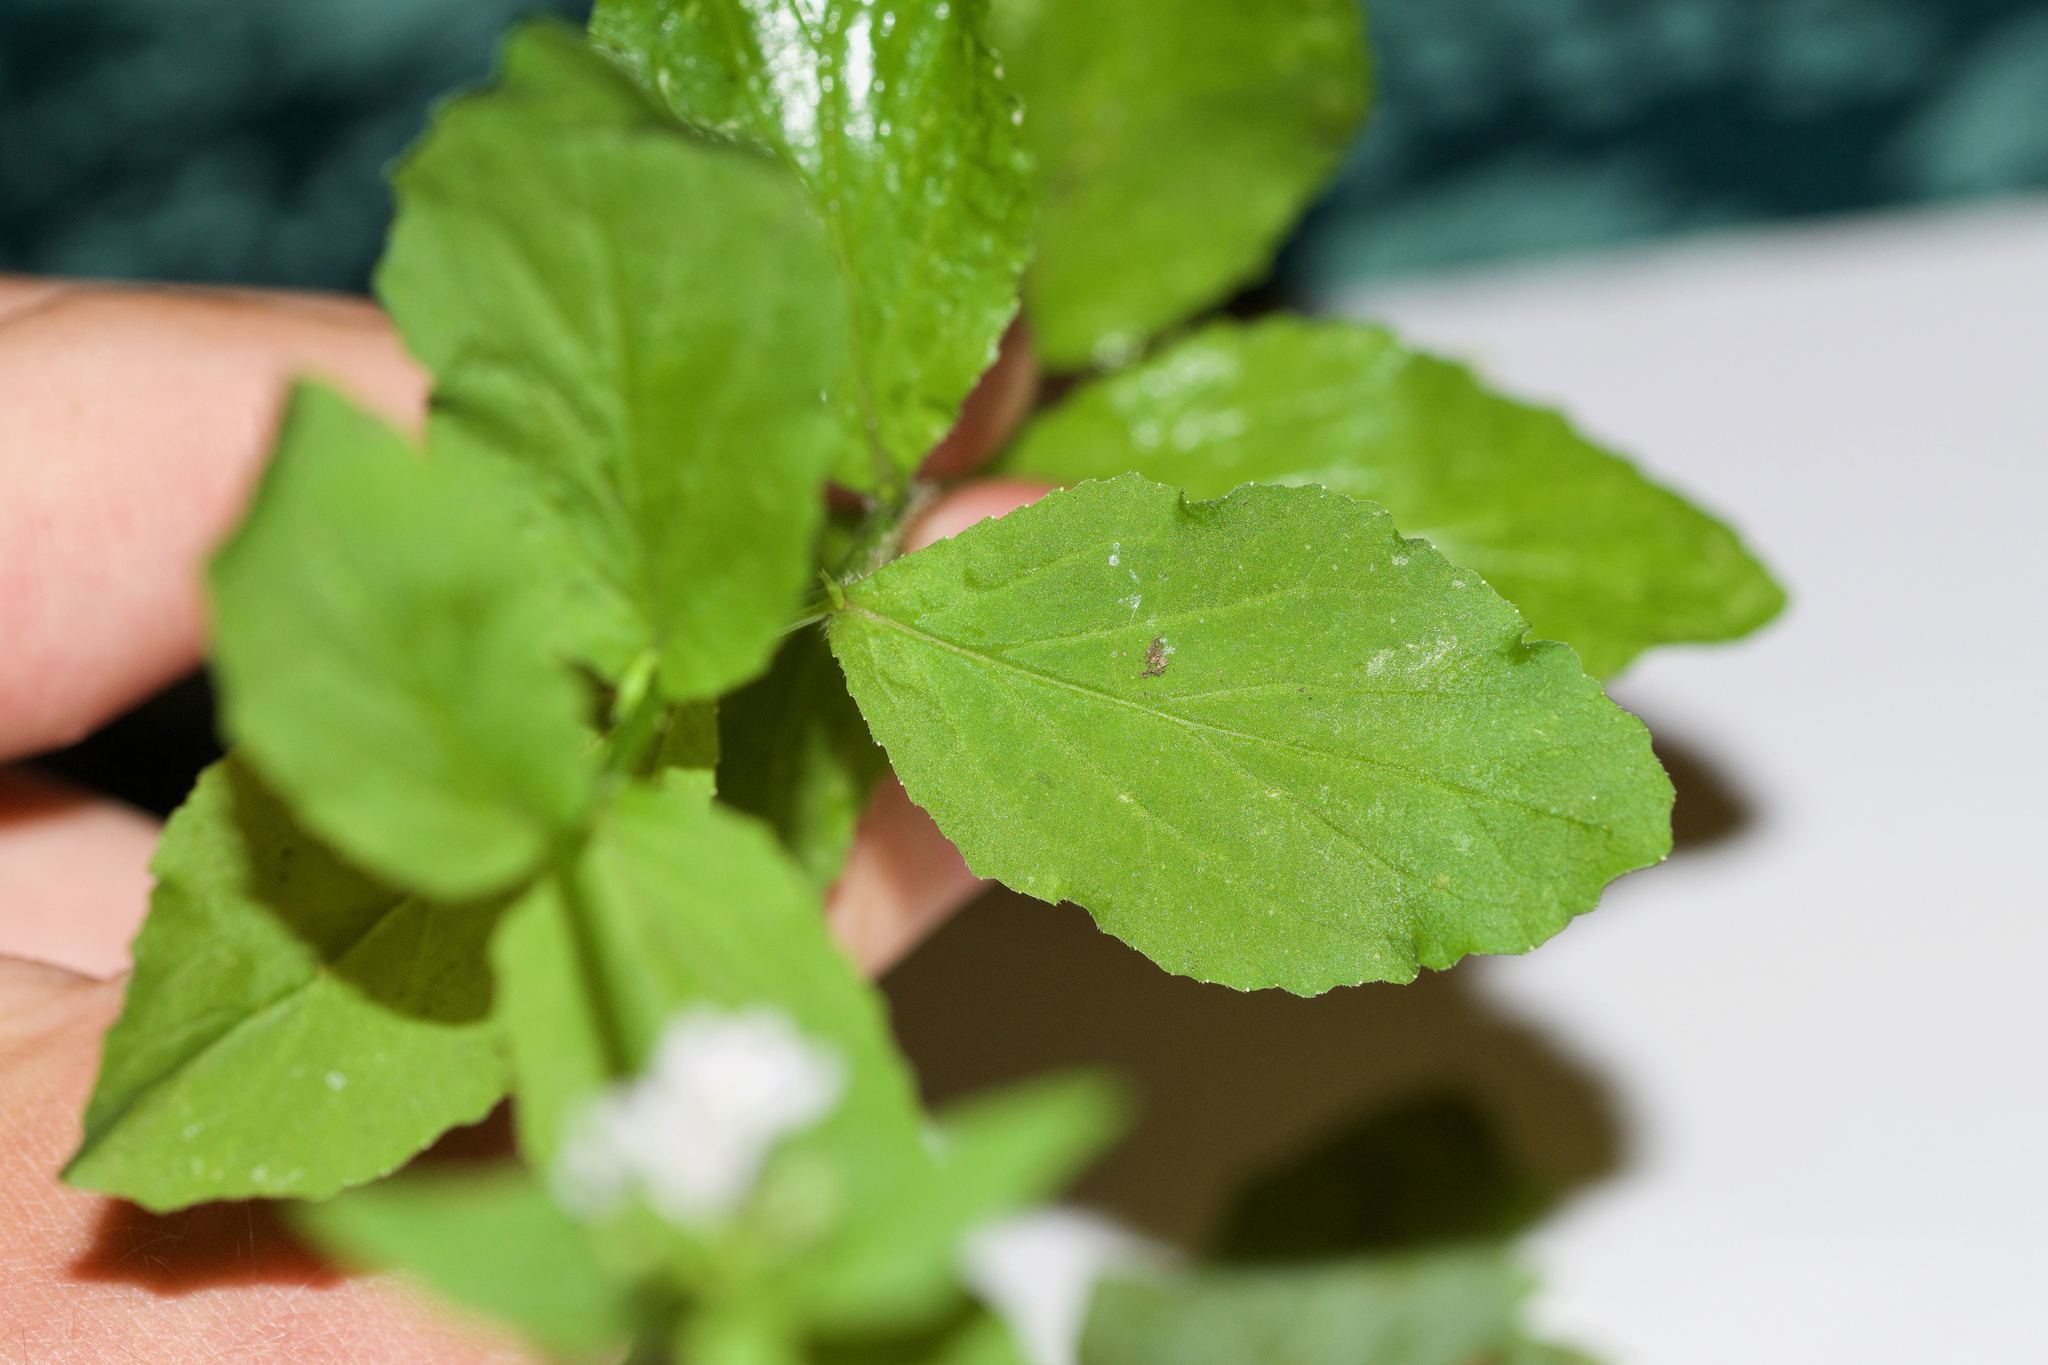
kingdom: Plantae
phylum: Tracheophyta
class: Magnoliopsida
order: Asterales
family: Campanulaceae
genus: Lobelia
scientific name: Lobelia inflata
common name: Indian tobacco
